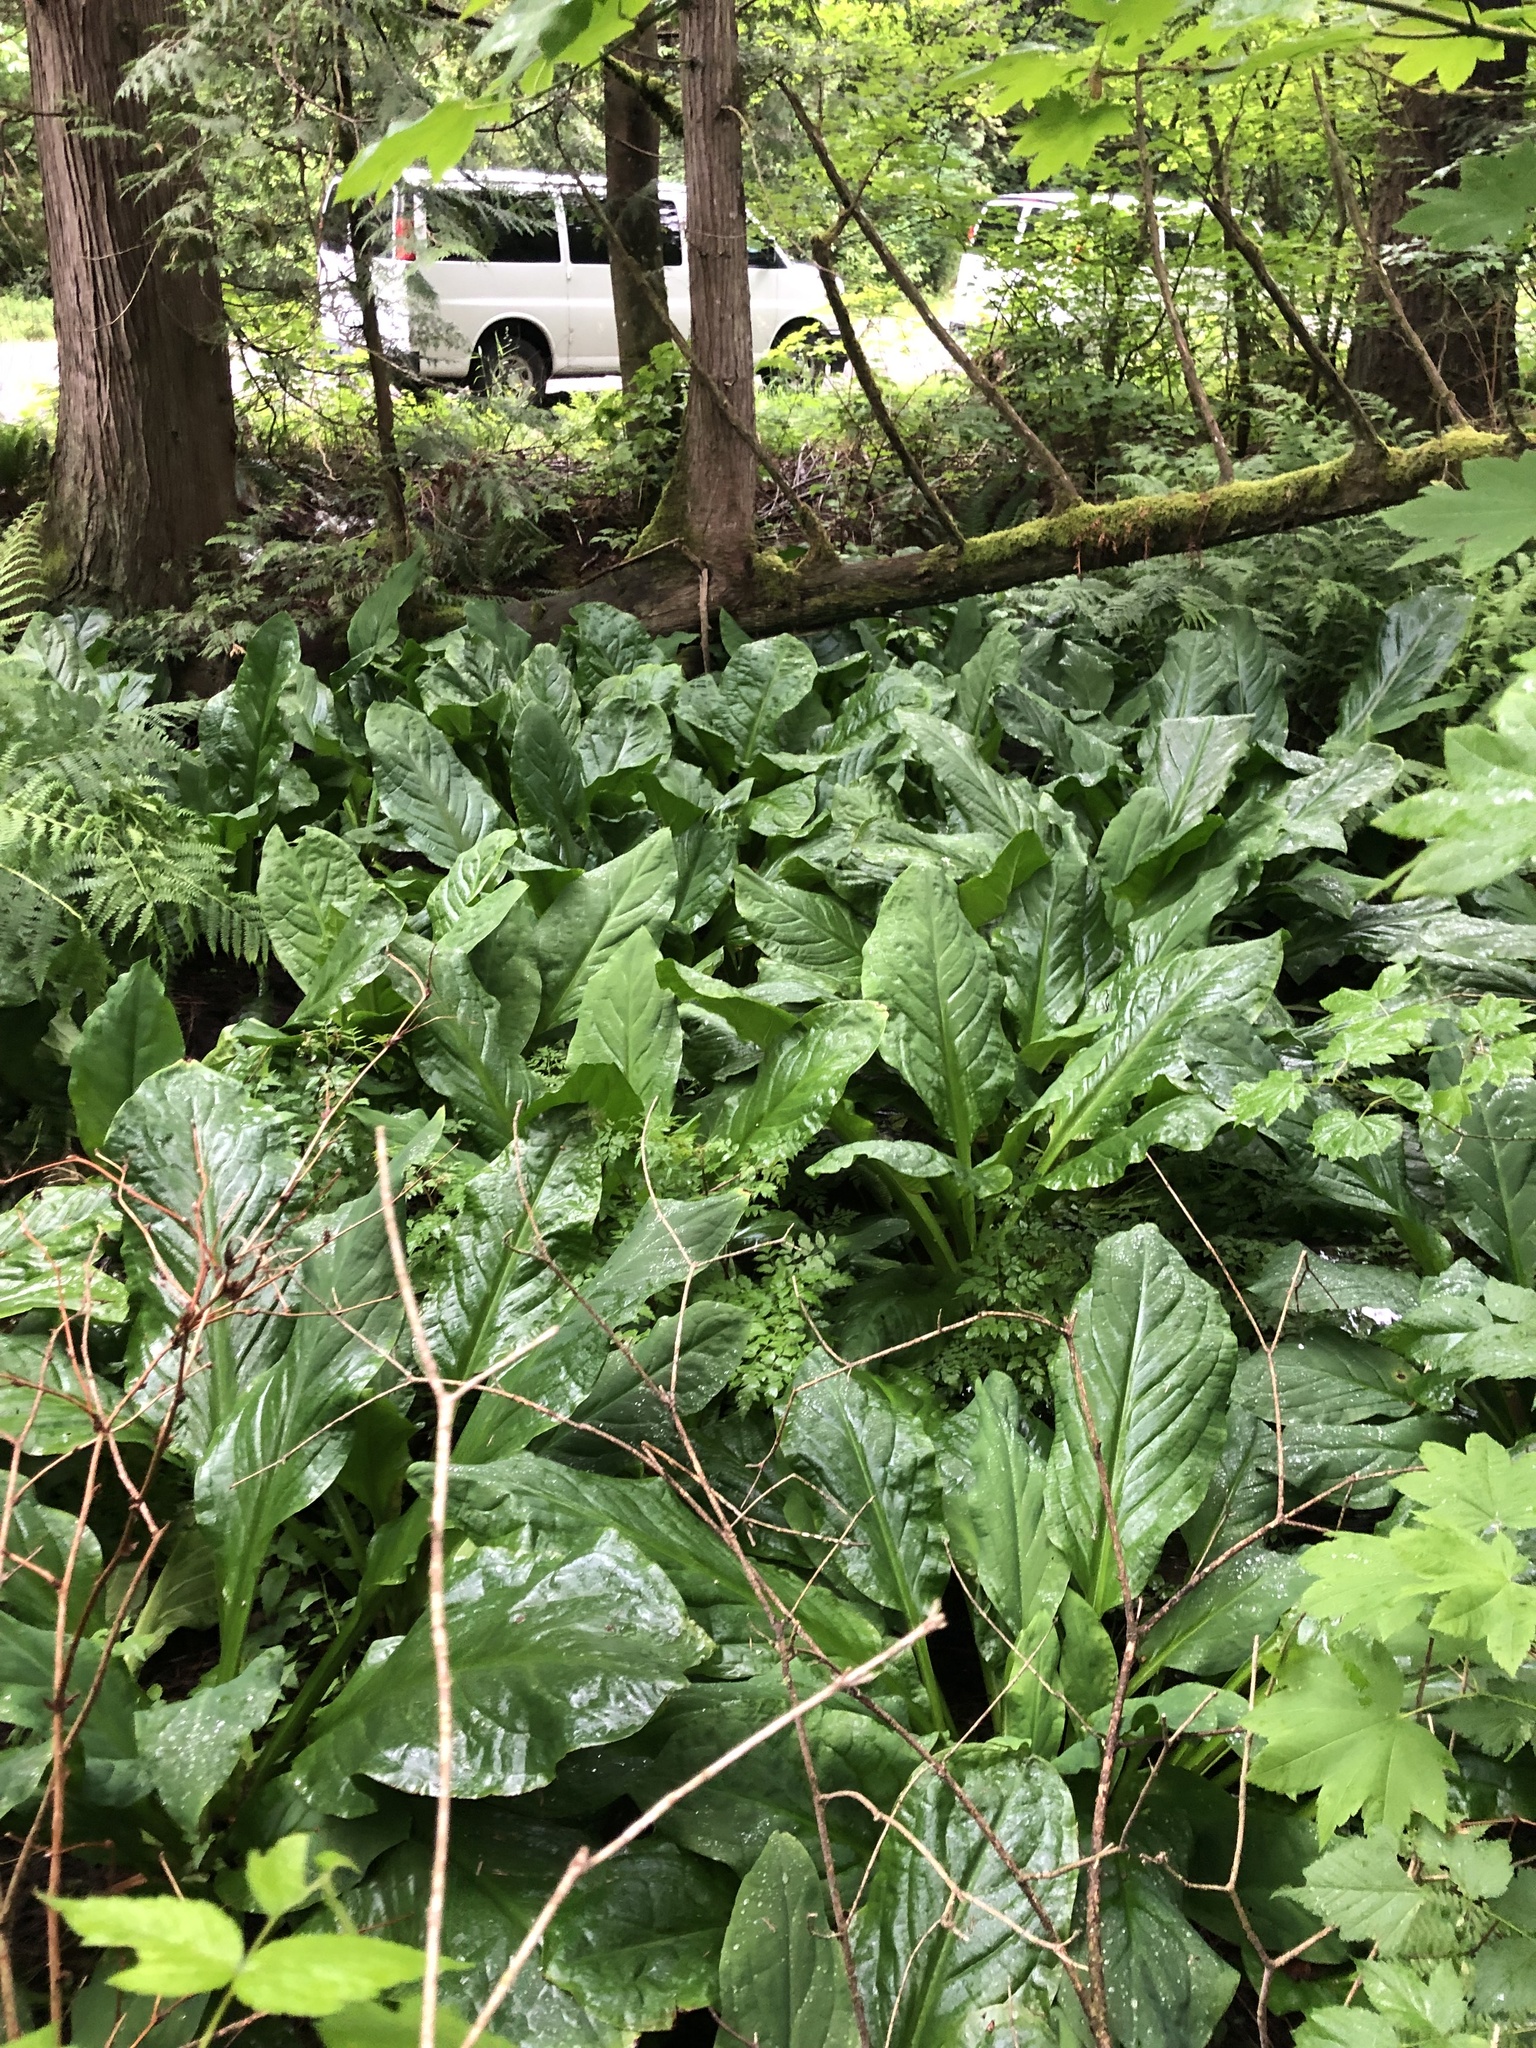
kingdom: Plantae
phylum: Tracheophyta
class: Liliopsida
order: Alismatales
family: Araceae
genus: Lysichiton
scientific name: Lysichiton americanus
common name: American skunk cabbage
